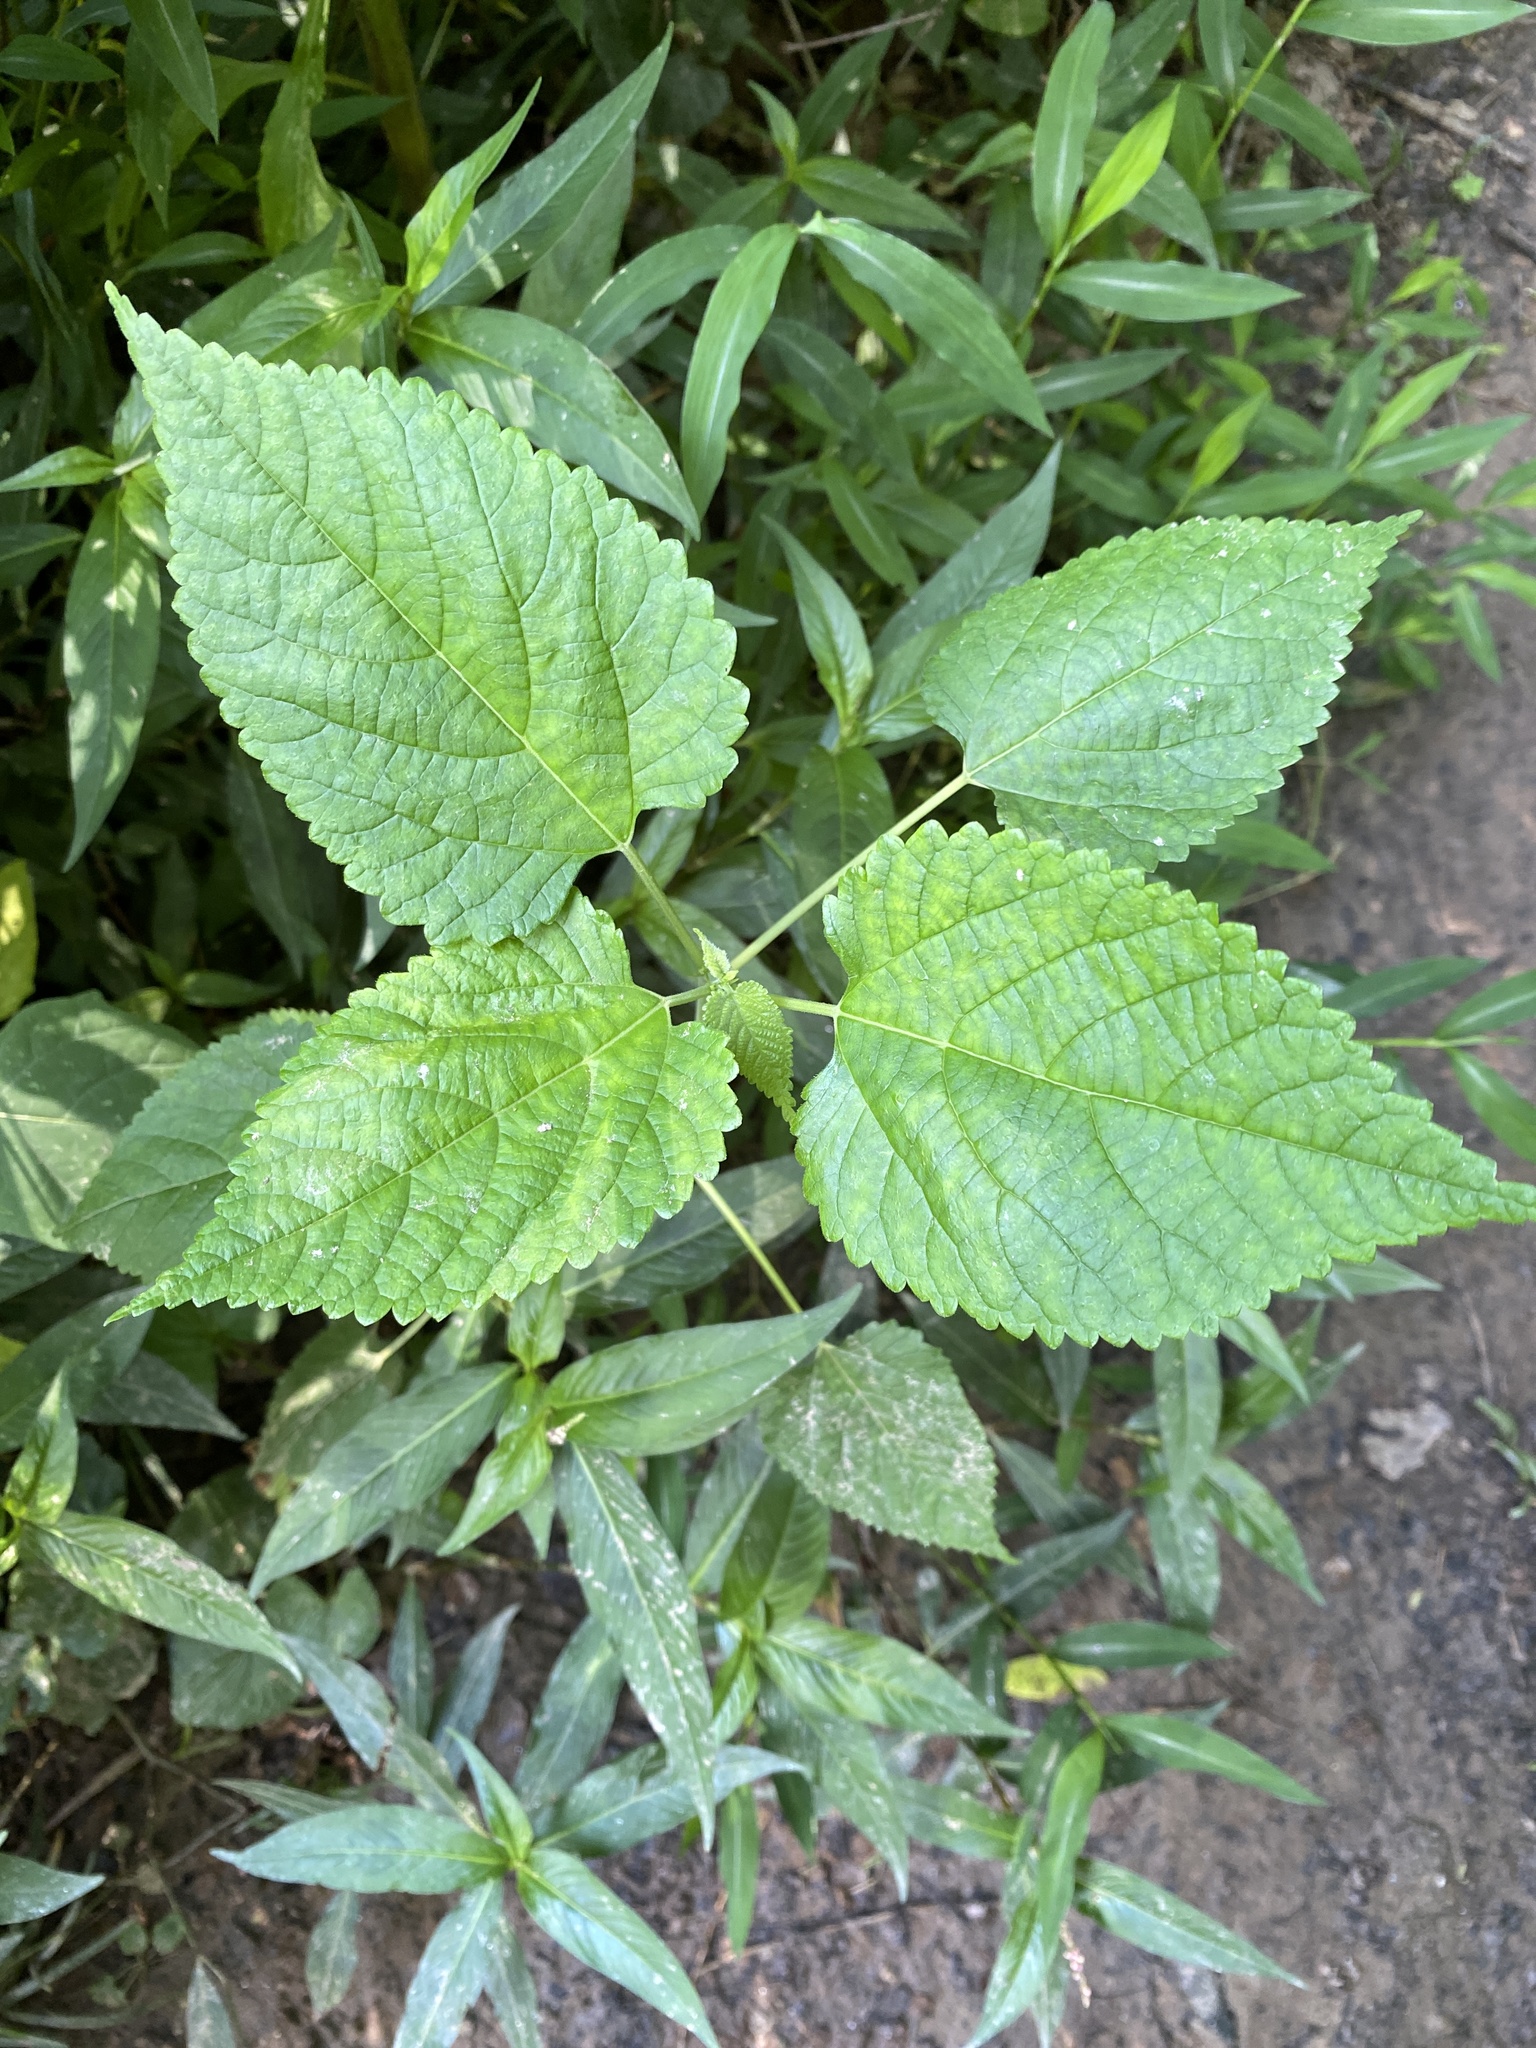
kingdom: Plantae
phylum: Tracheophyta
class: Magnoliopsida
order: Rosales
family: Moraceae
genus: Fatoua
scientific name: Fatoua villosa
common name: Hairy crabweed
